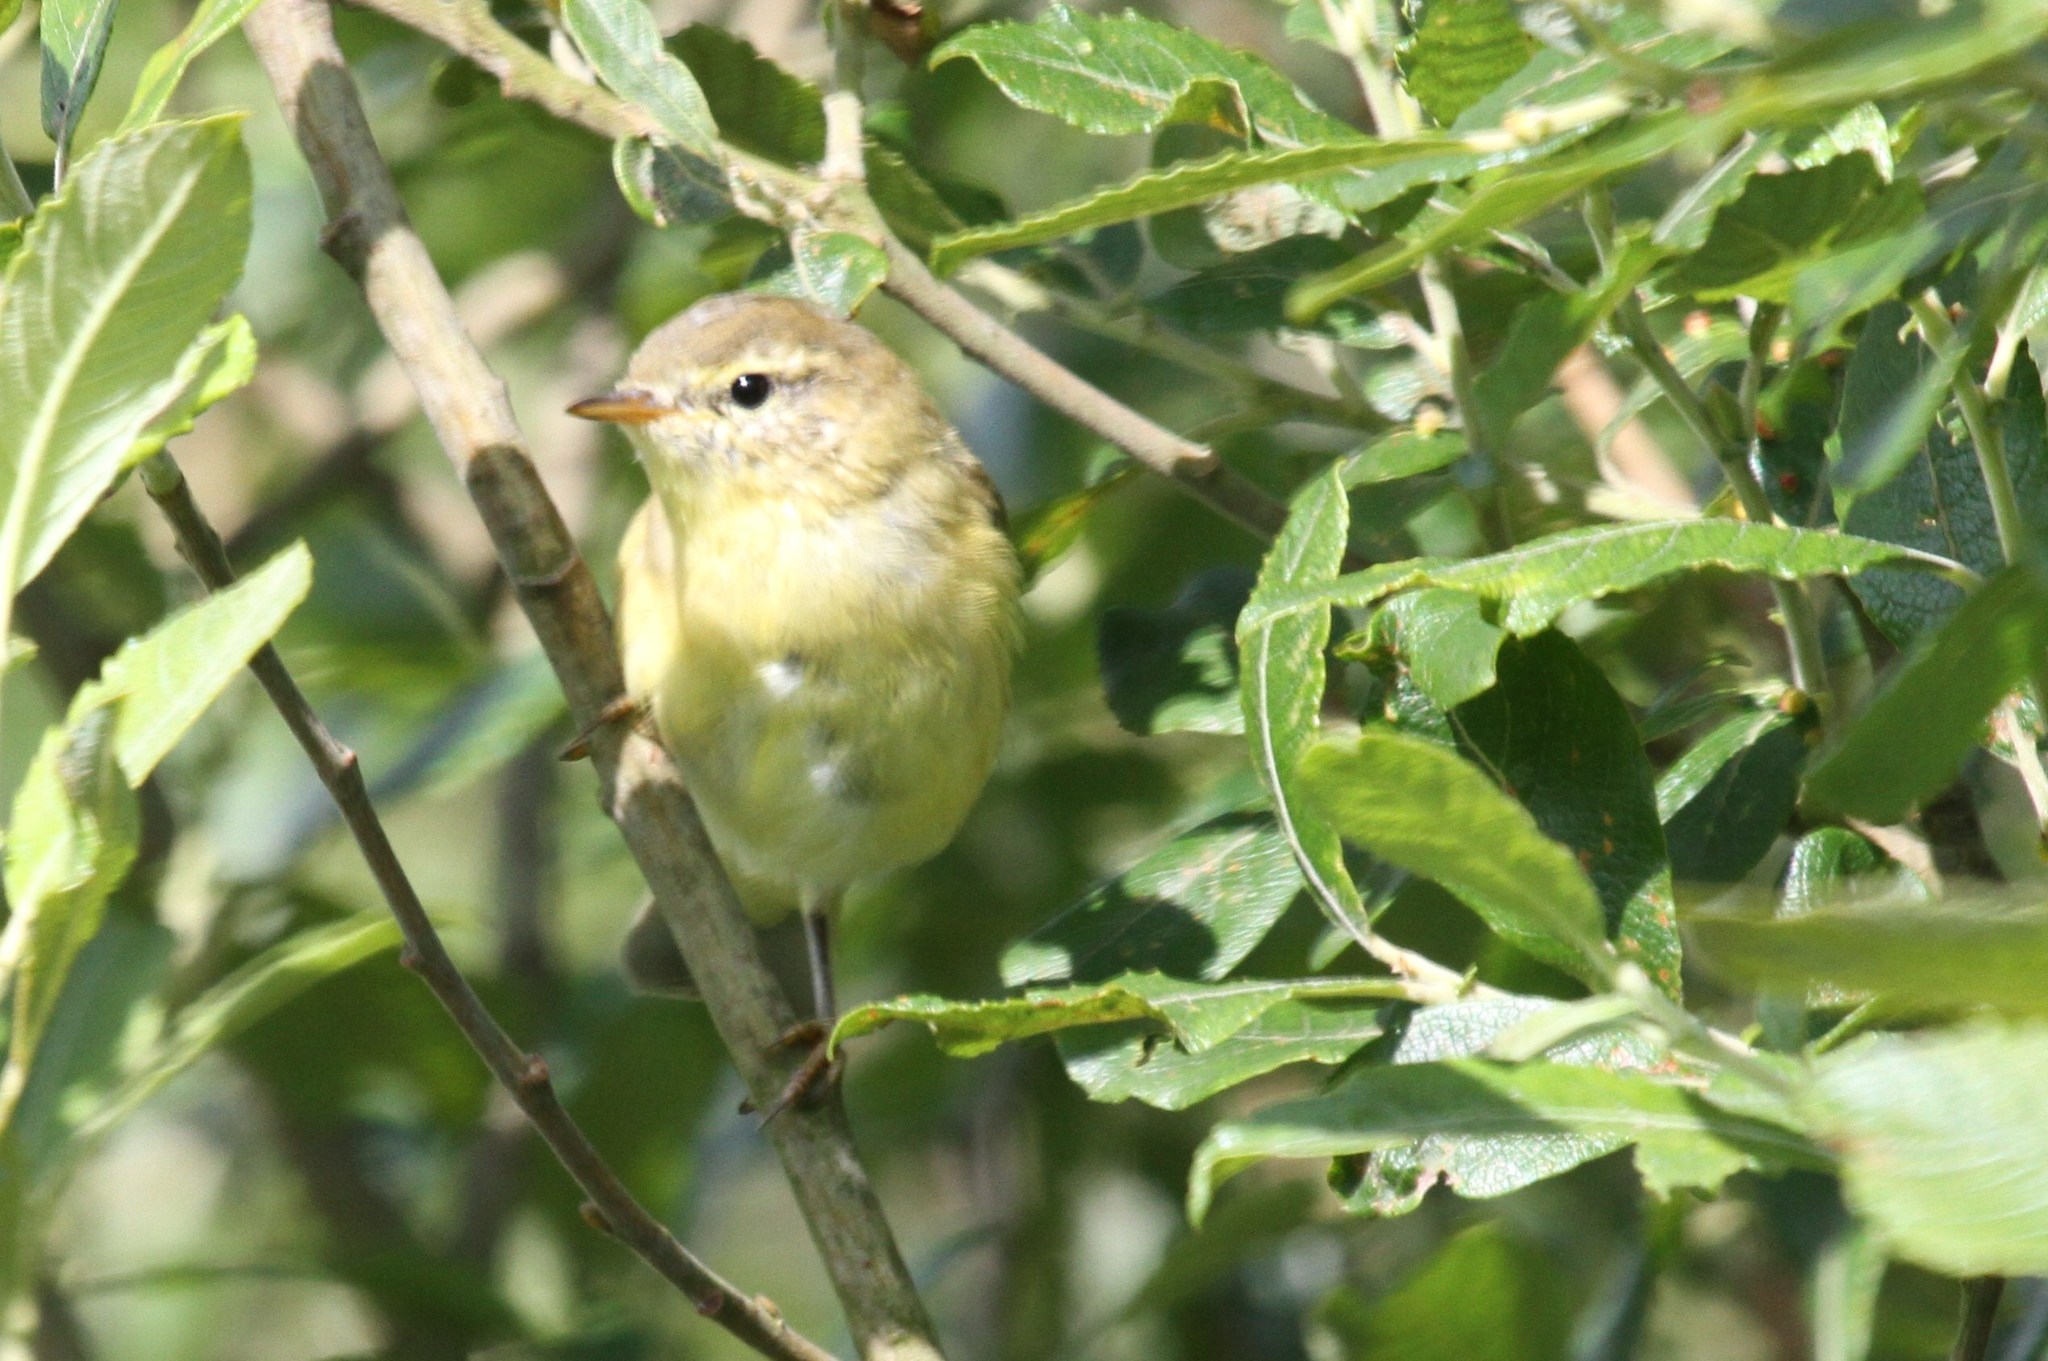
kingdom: Animalia
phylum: Chordata
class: Aves
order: Passeriformes
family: Phylloscopidae
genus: Phylloscopus
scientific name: Phylloscopus trochilus
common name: Willow warbler
